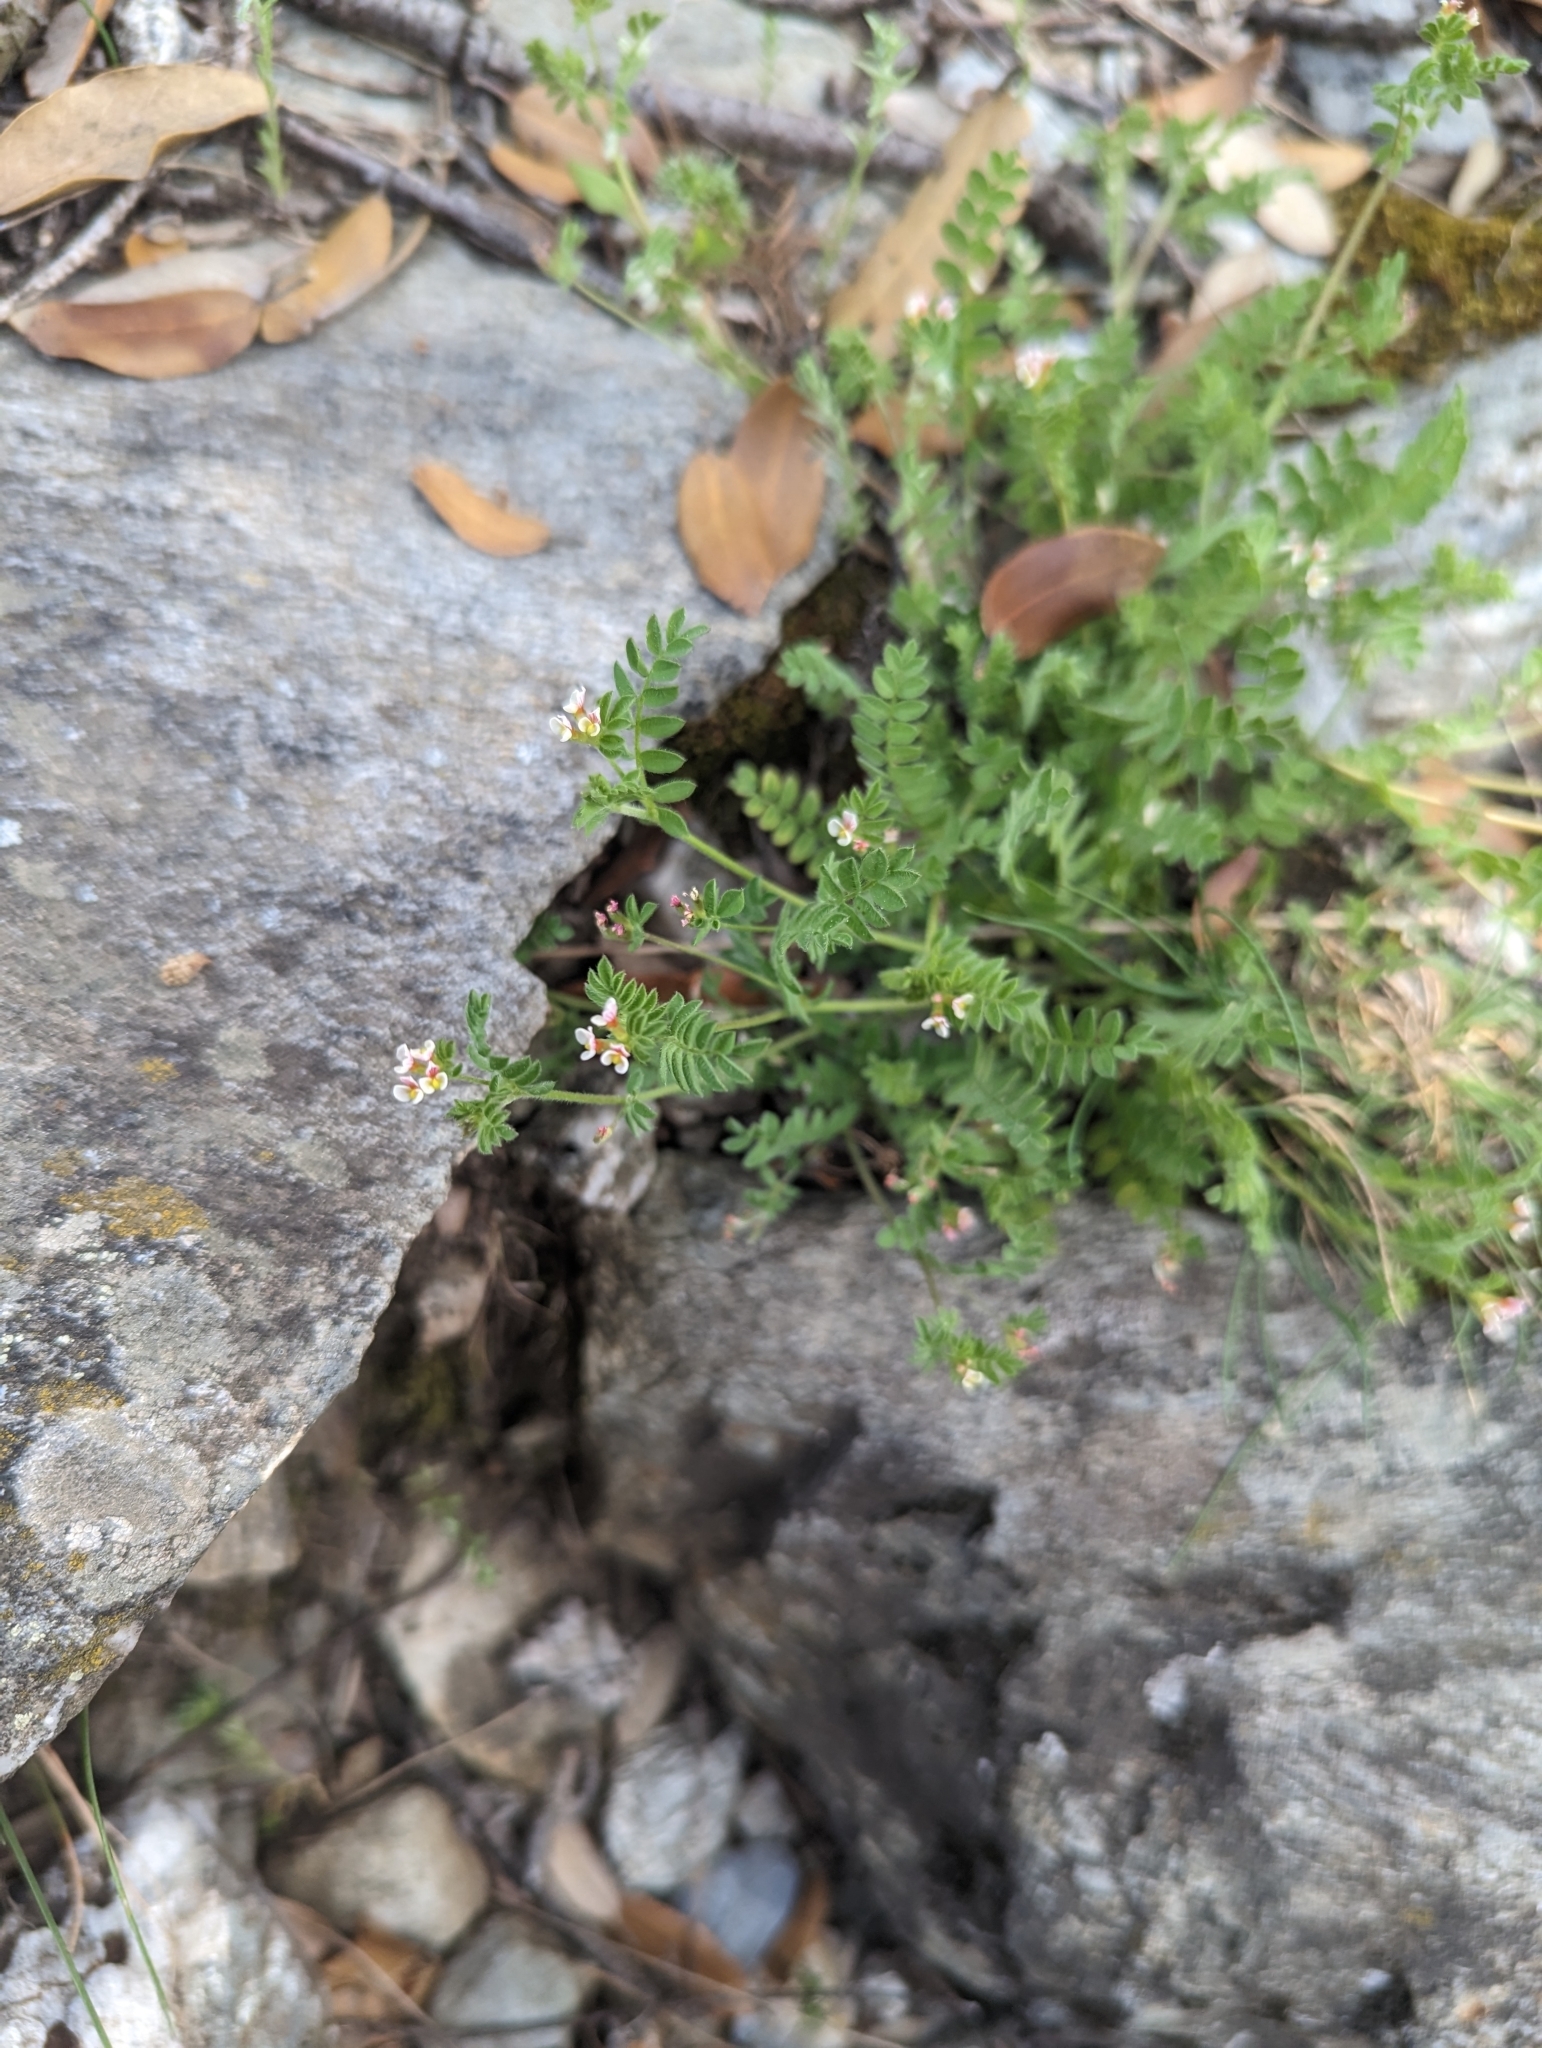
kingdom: Plantae
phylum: Tracheophyta
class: Magnoliopsida
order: Fabales
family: Fabaceae
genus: Ornithopus
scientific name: Ornithopus perpusillus
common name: Bird's-foot
